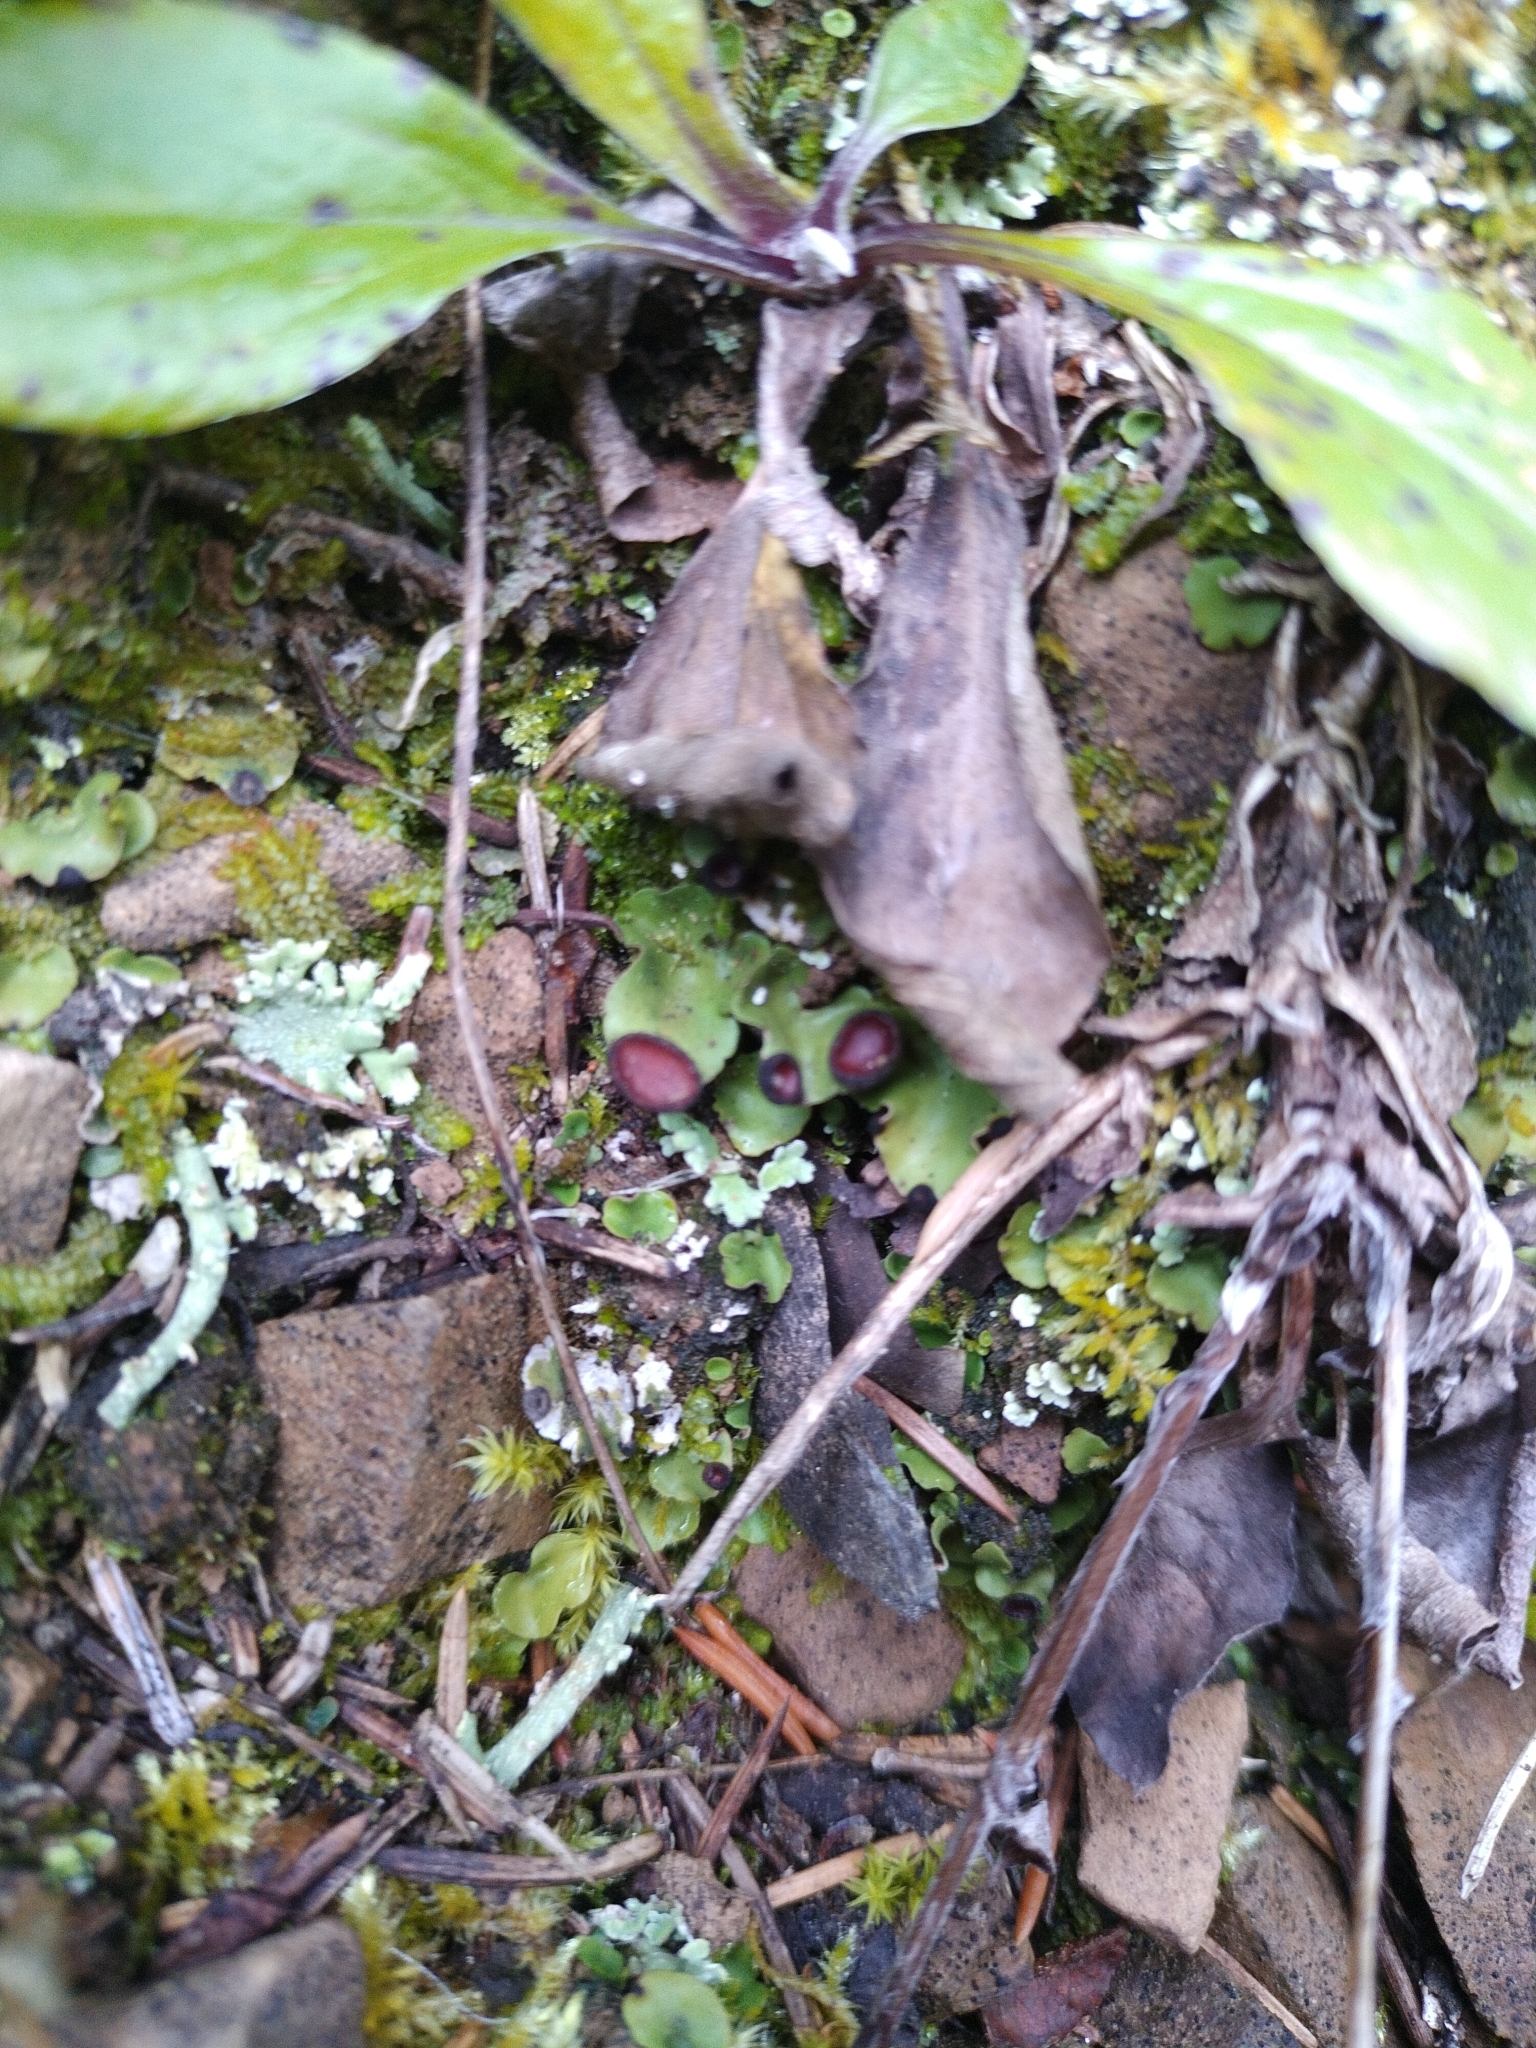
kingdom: Fungi
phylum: Ascomycota
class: Lecanoromycetes
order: Peltigerales
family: Peltigeraceae
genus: Peltigera
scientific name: Peltigera venosa
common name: Pixie gowns lichen
